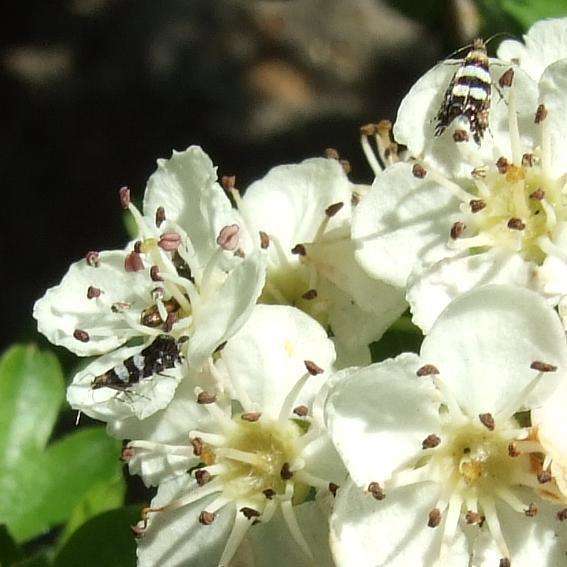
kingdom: Animalia
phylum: Arthropoda
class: Insecta
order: Lepidoptera
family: Glyphipterigidae
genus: Glyphipterix
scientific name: Glyphipterix meteora
